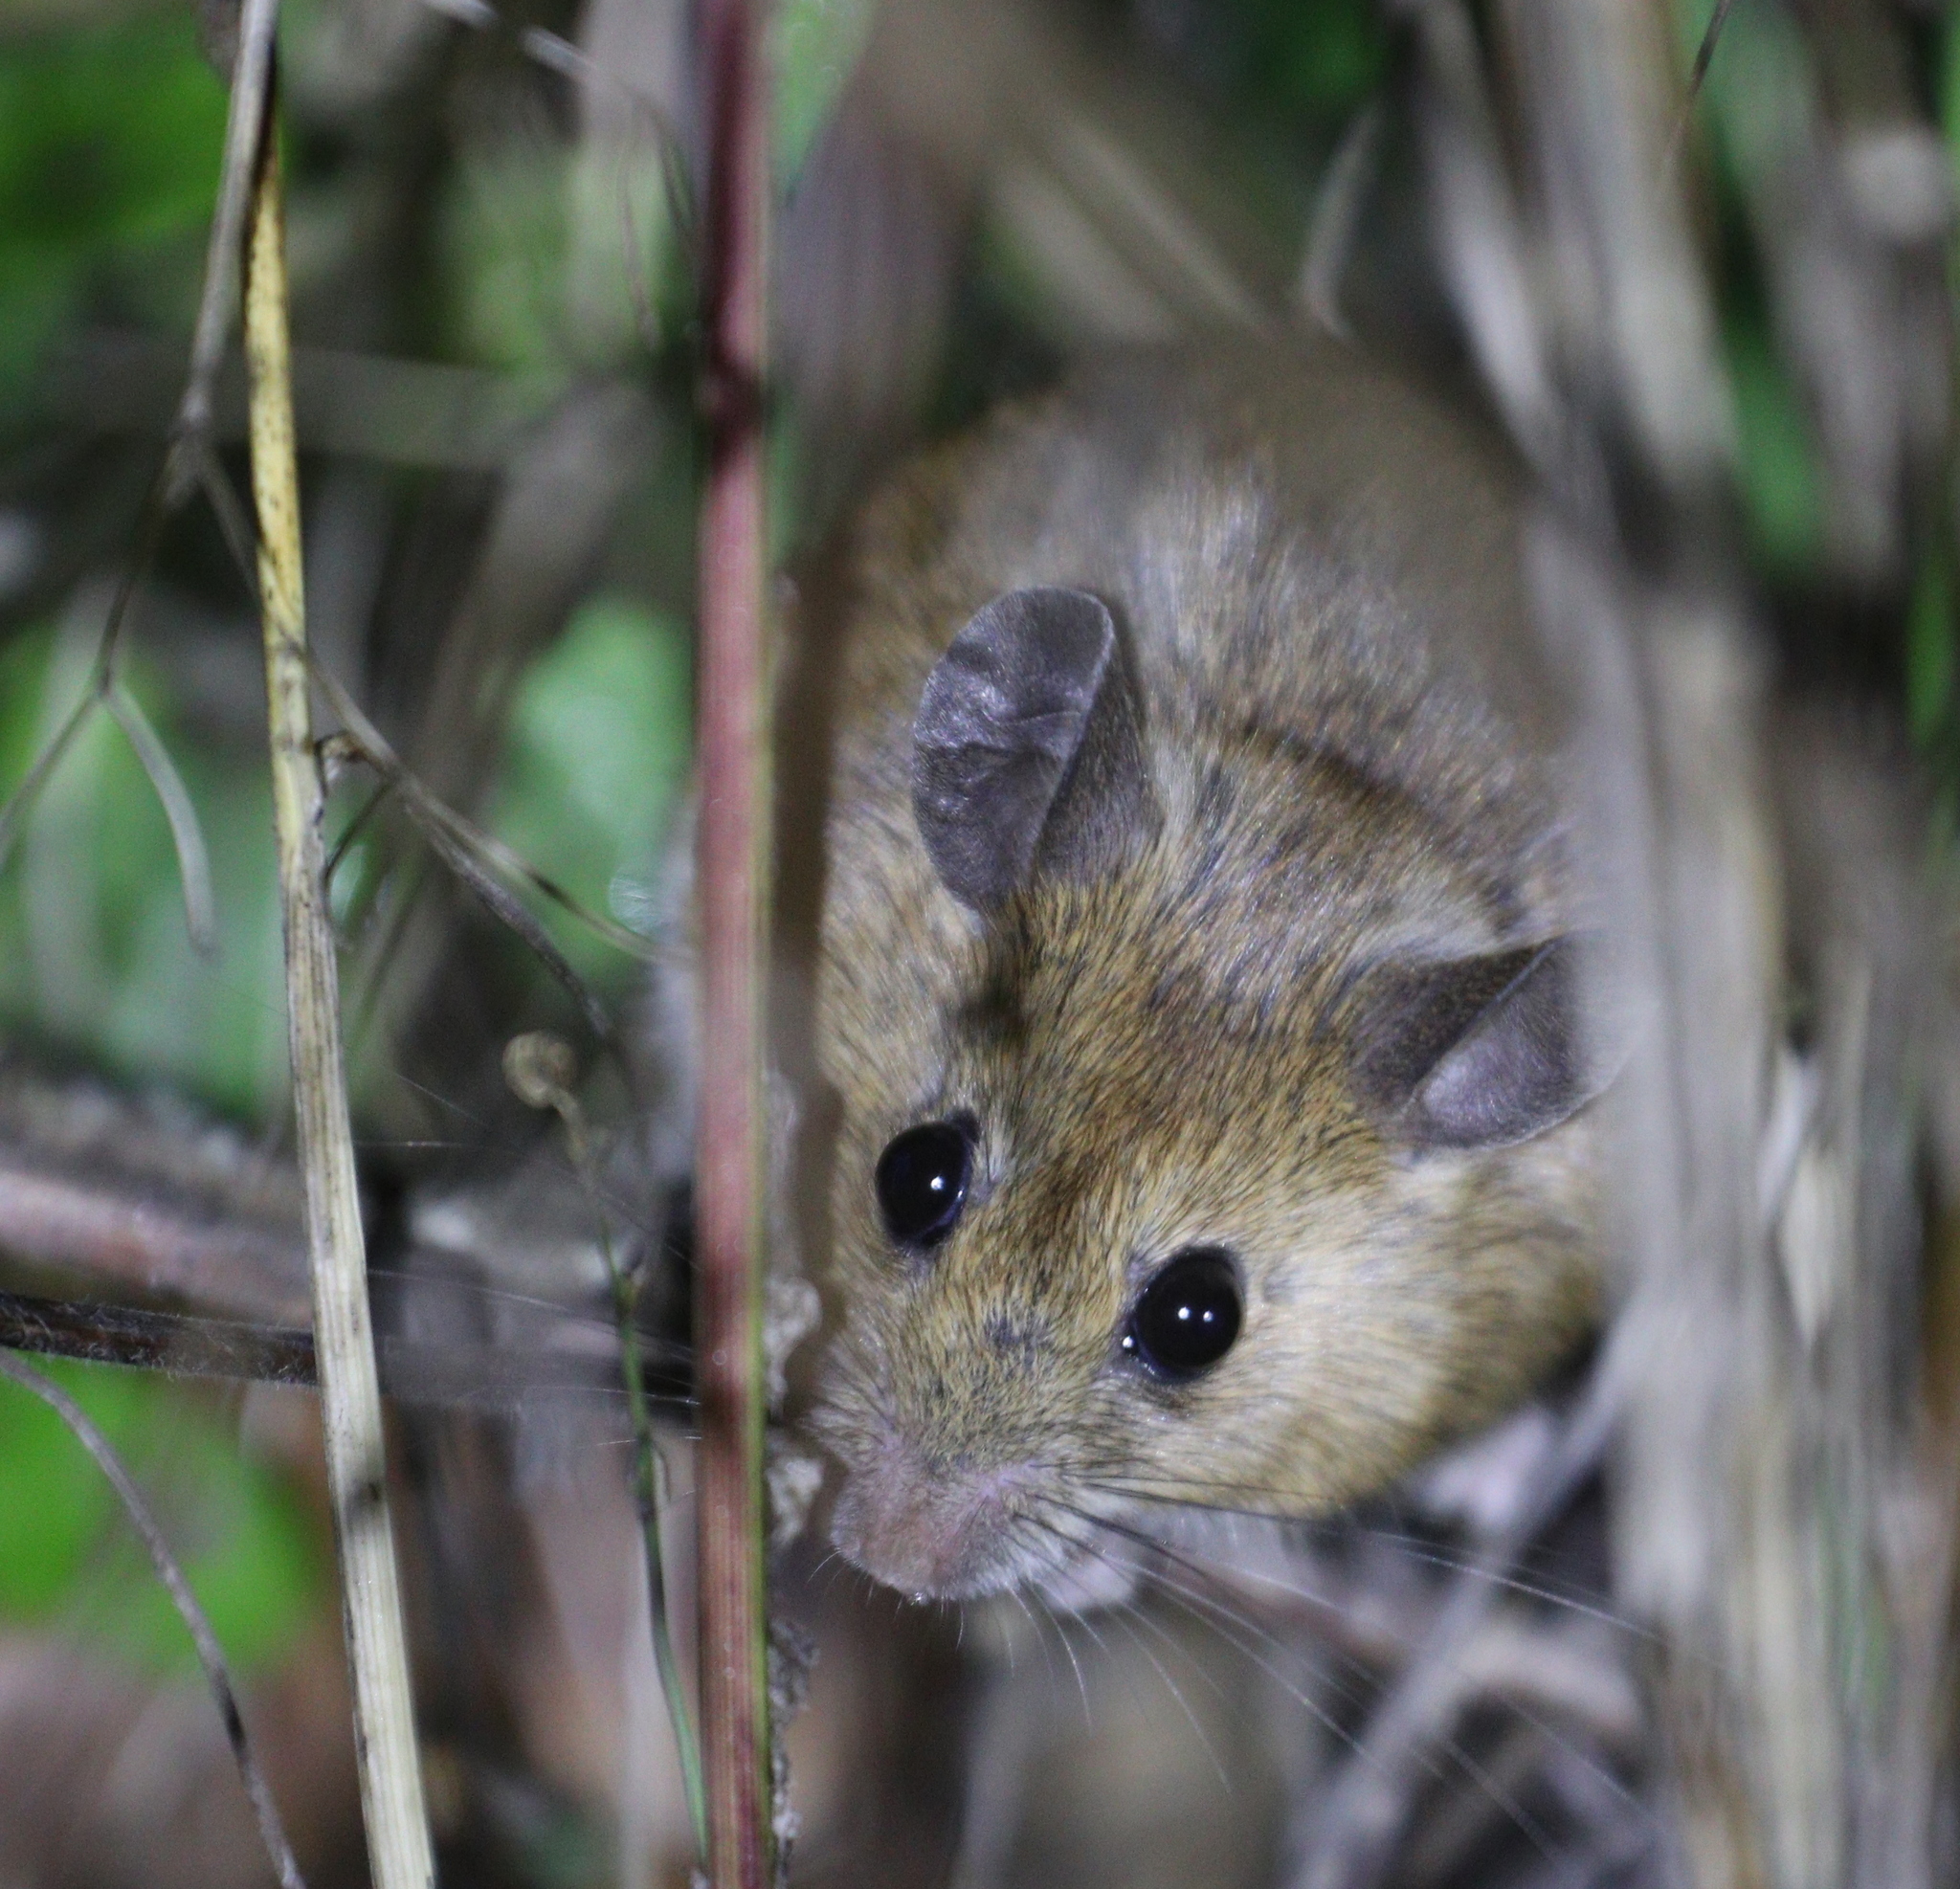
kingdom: Animalia
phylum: Chordata
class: Mammalia
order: Rodentia
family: Muridae
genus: Apodemus
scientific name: Apodemus sylvaticus
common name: Wood mouse
